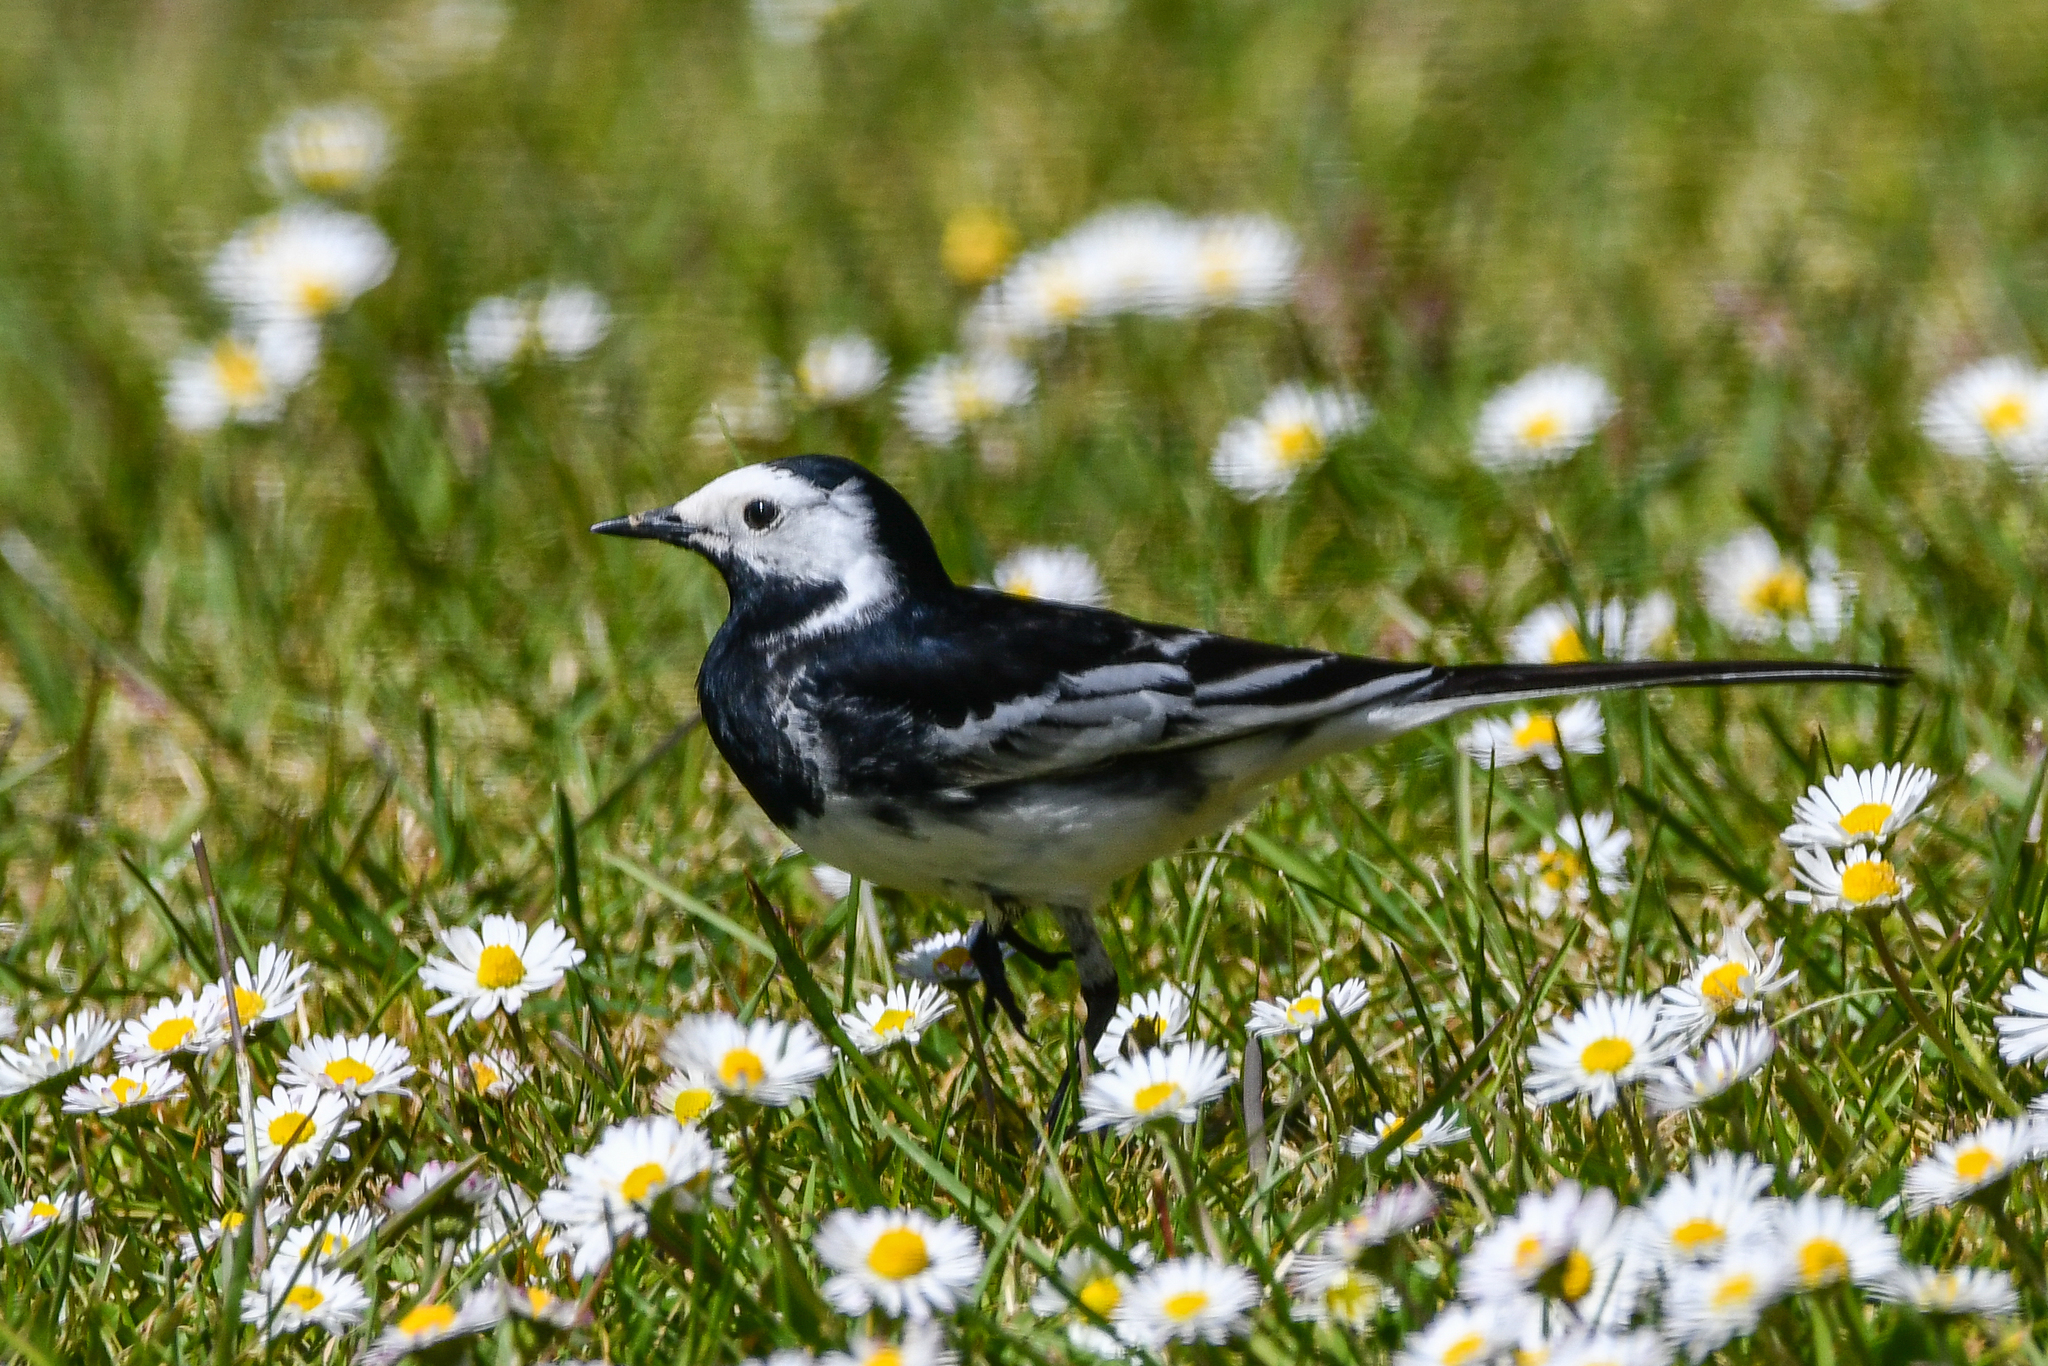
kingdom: Animalia
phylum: Chordata
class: Aves
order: Passeriformes
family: Motacillidae
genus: Motacilla
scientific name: Motacilla alba
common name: White wagtail
